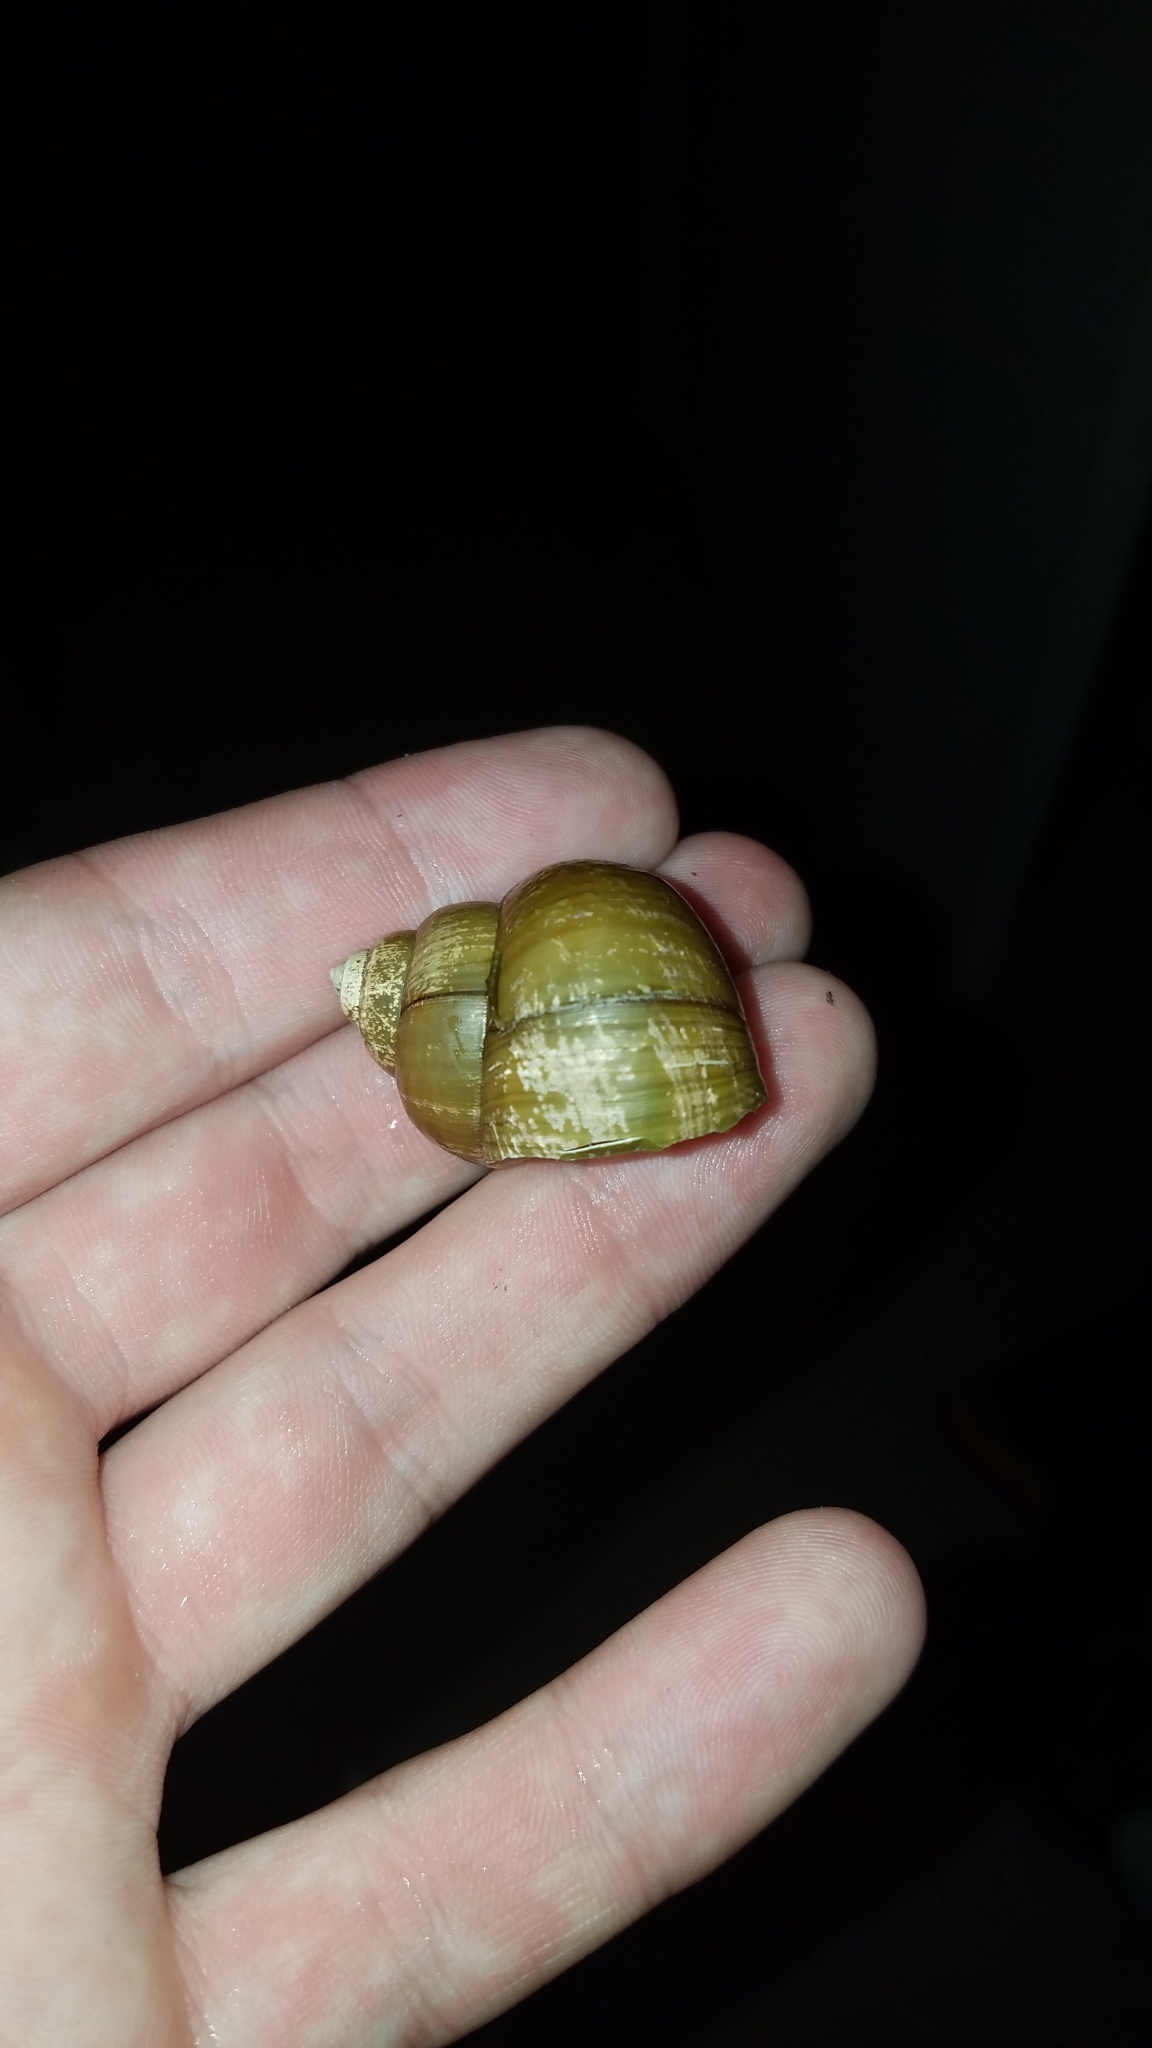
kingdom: Animalia
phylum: Mollusca
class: Gastropoda
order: Architaenioglossa
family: Viviparidae
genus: Cipangopaludina
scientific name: Cipangopaludina chinensis
